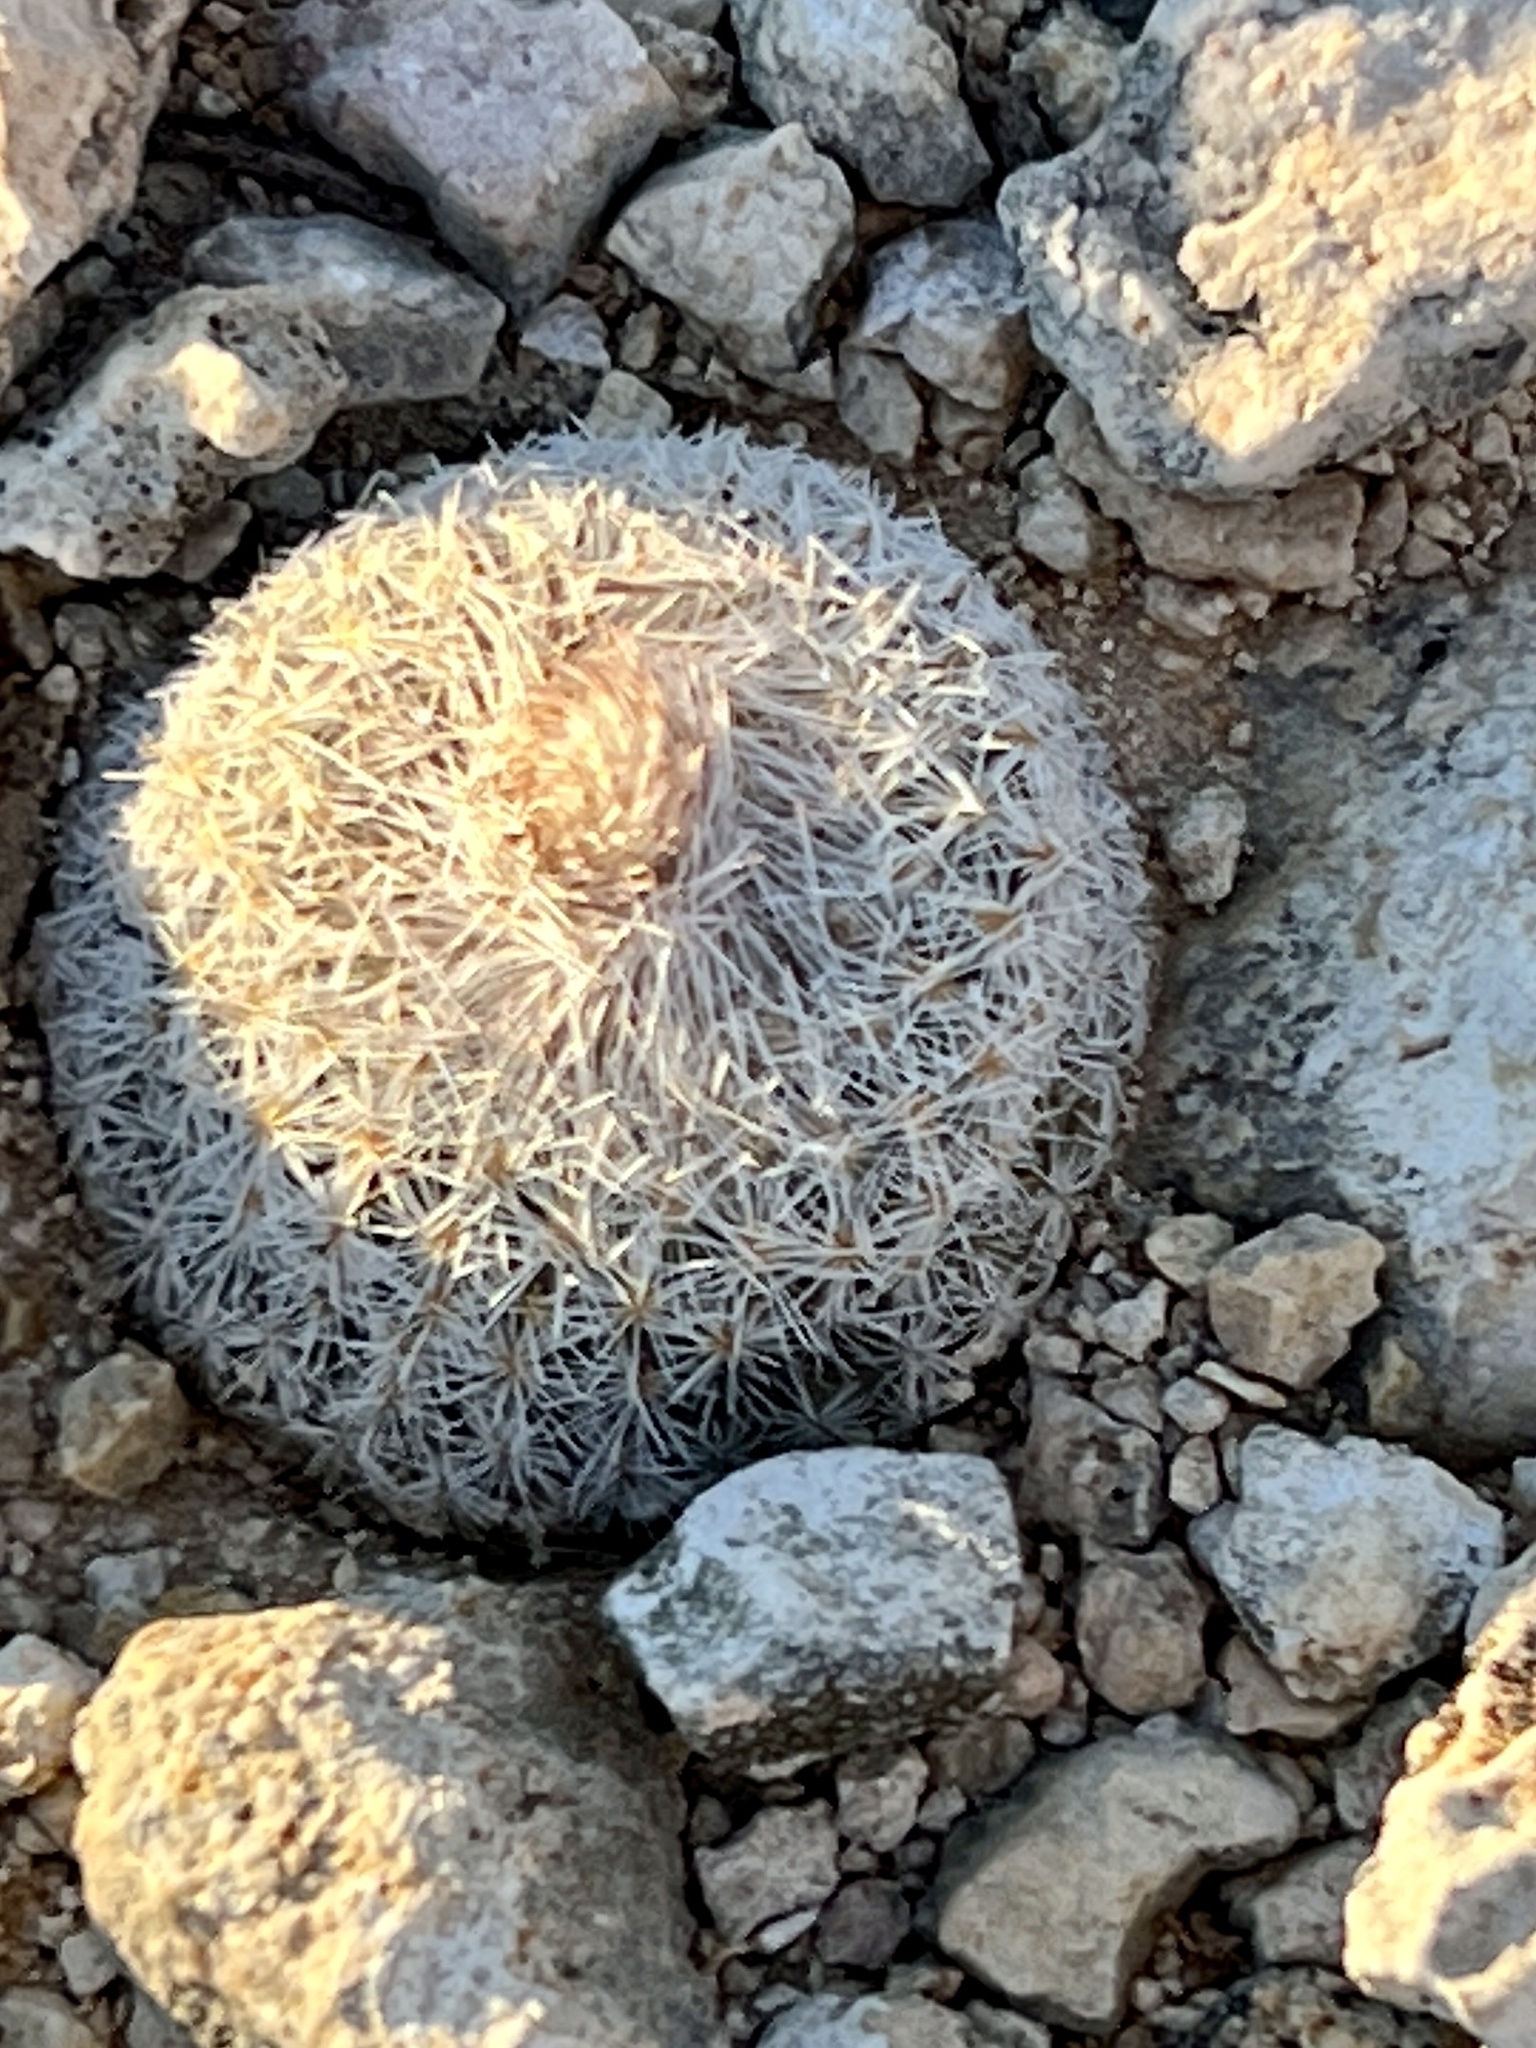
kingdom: Plantae
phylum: Tracheophyta
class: Magnoliopsida
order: Caryophyllales
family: Cactaceae
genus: Epithelantha
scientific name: Epithelantha micromeris
